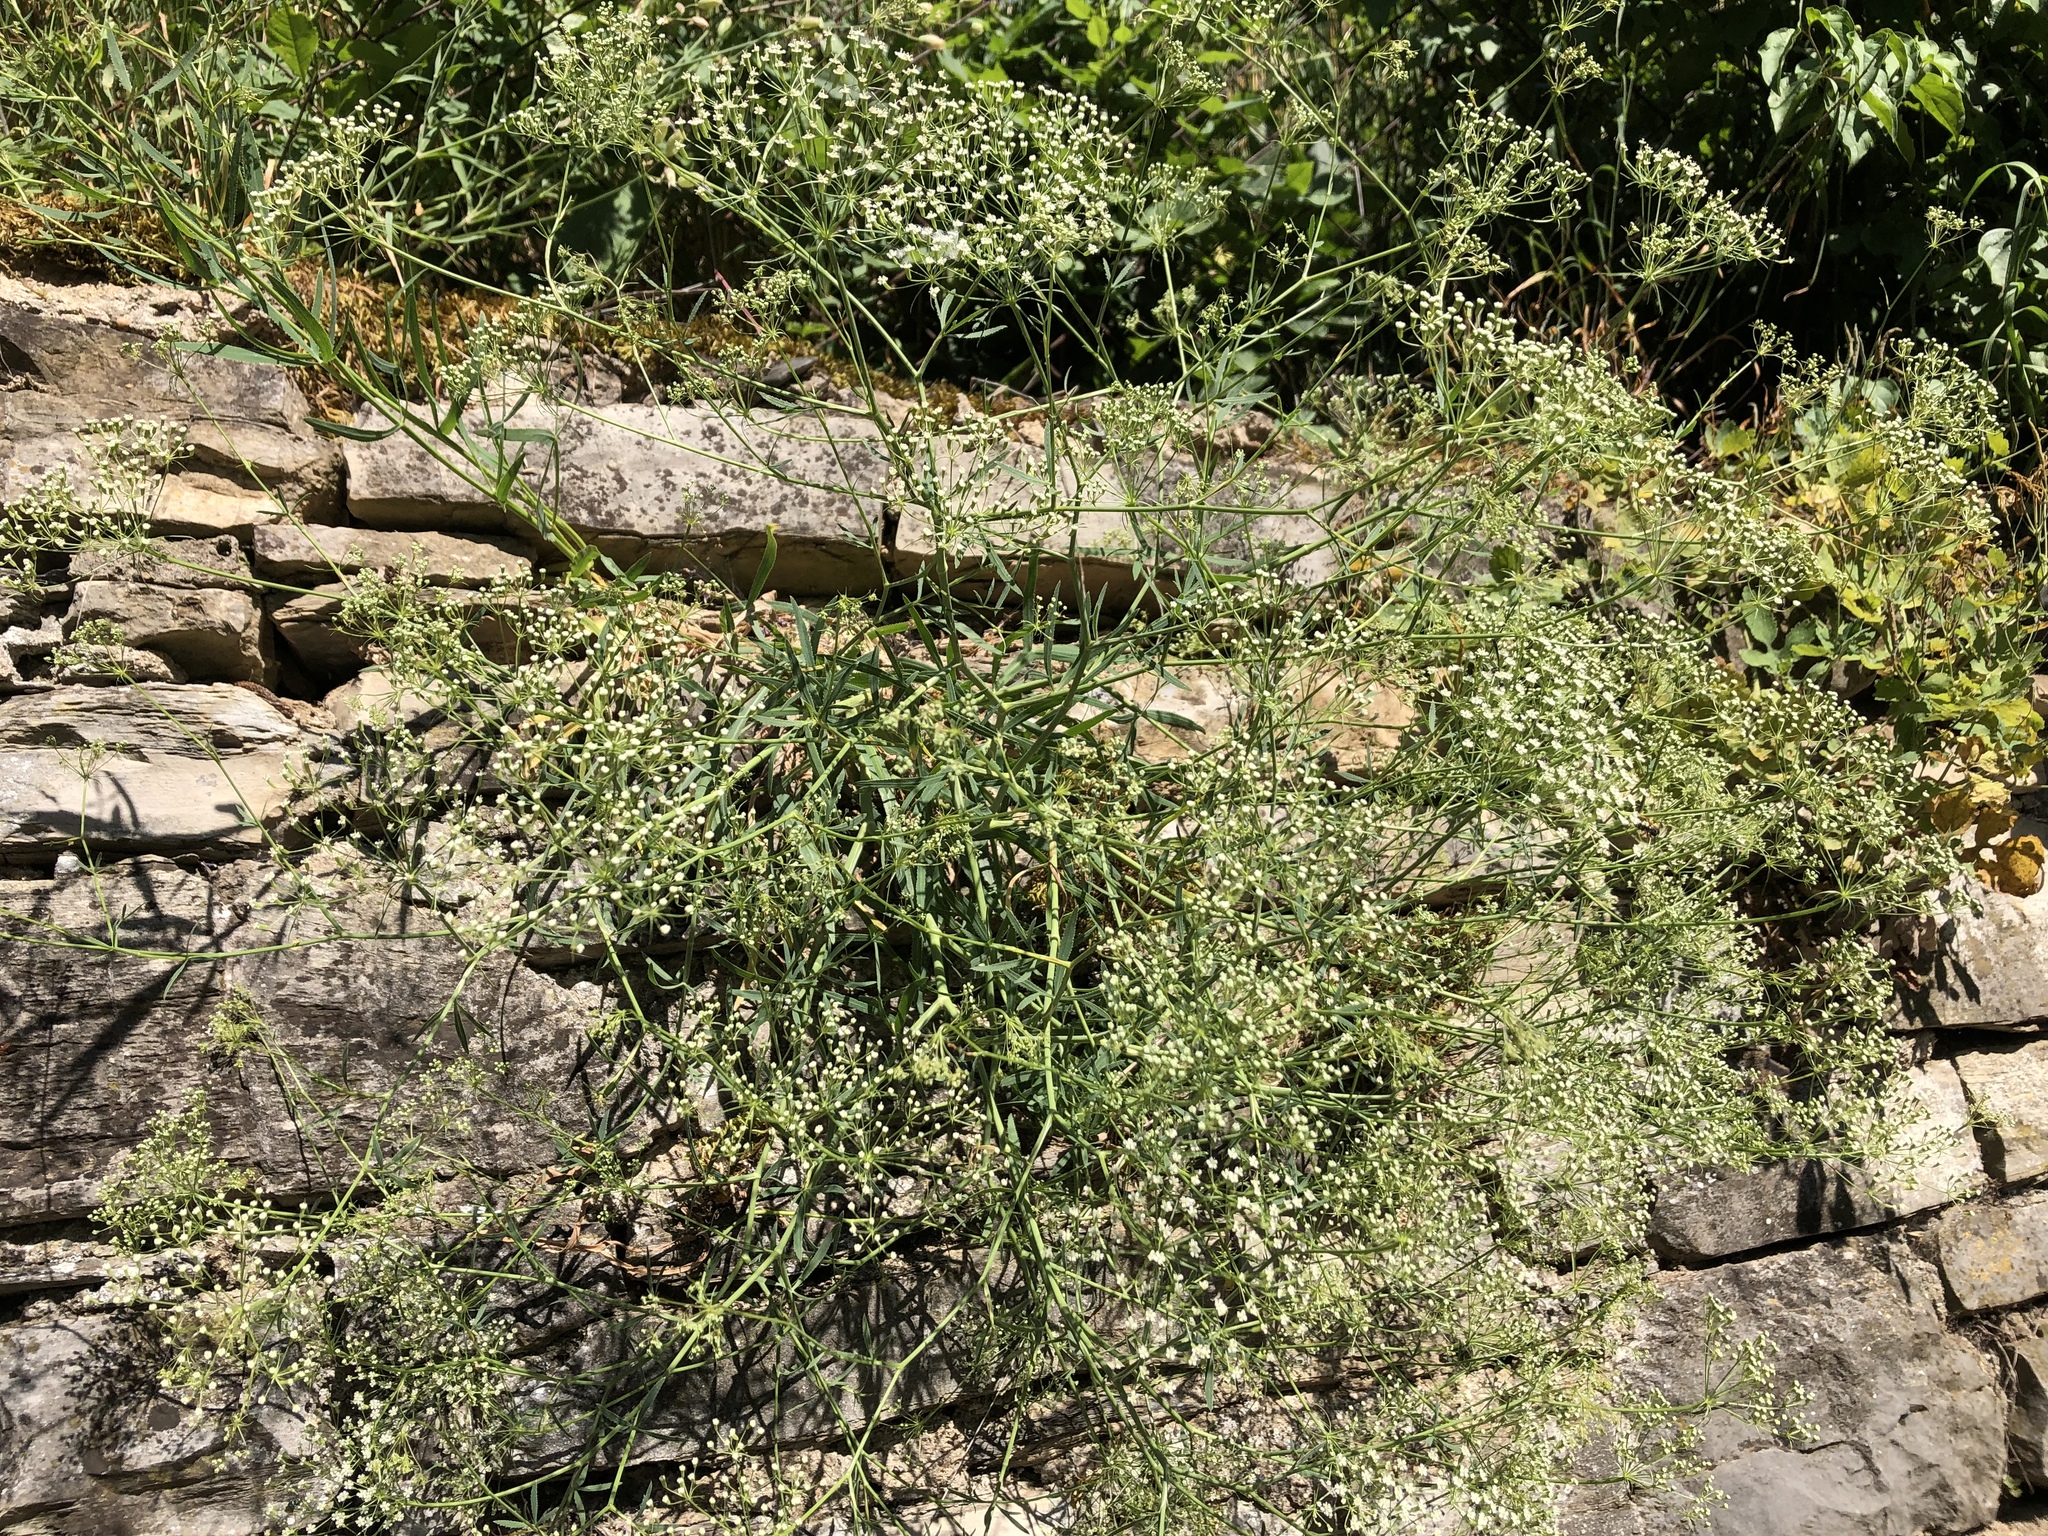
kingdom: Plantae
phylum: Tracheophyta
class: Magnoliopsida
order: Apiales
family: Apiaceae
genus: Falcaria
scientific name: Falcaria vulgaris
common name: Longleaf
